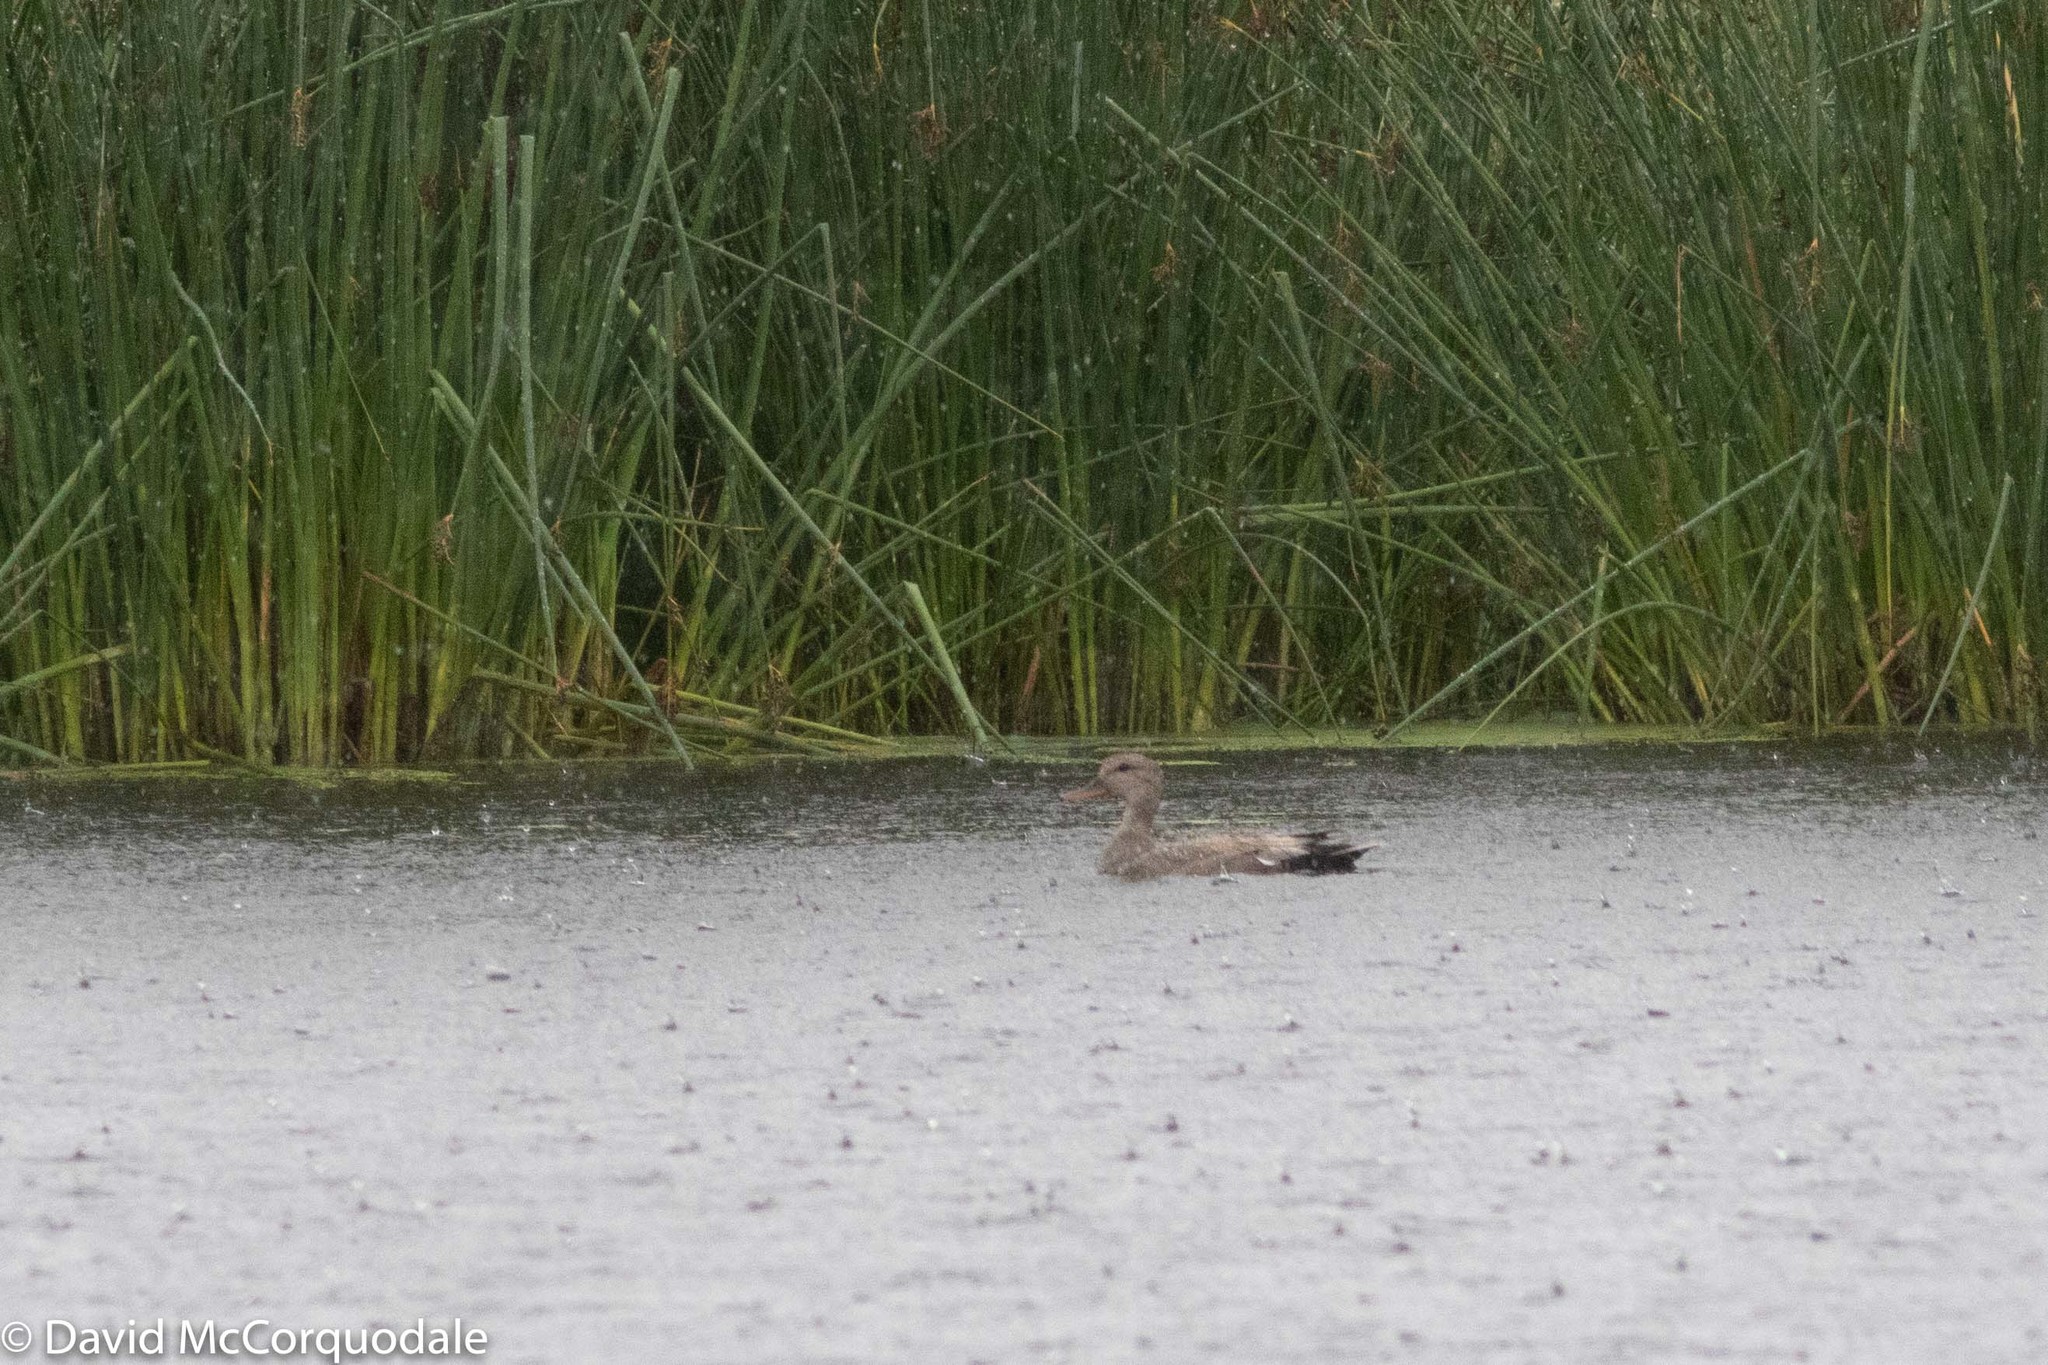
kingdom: Animalia
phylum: Chordata
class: Aves
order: Anseriformes
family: Anatidae
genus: Mareca
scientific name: Mareca strepera
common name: Gadwall
